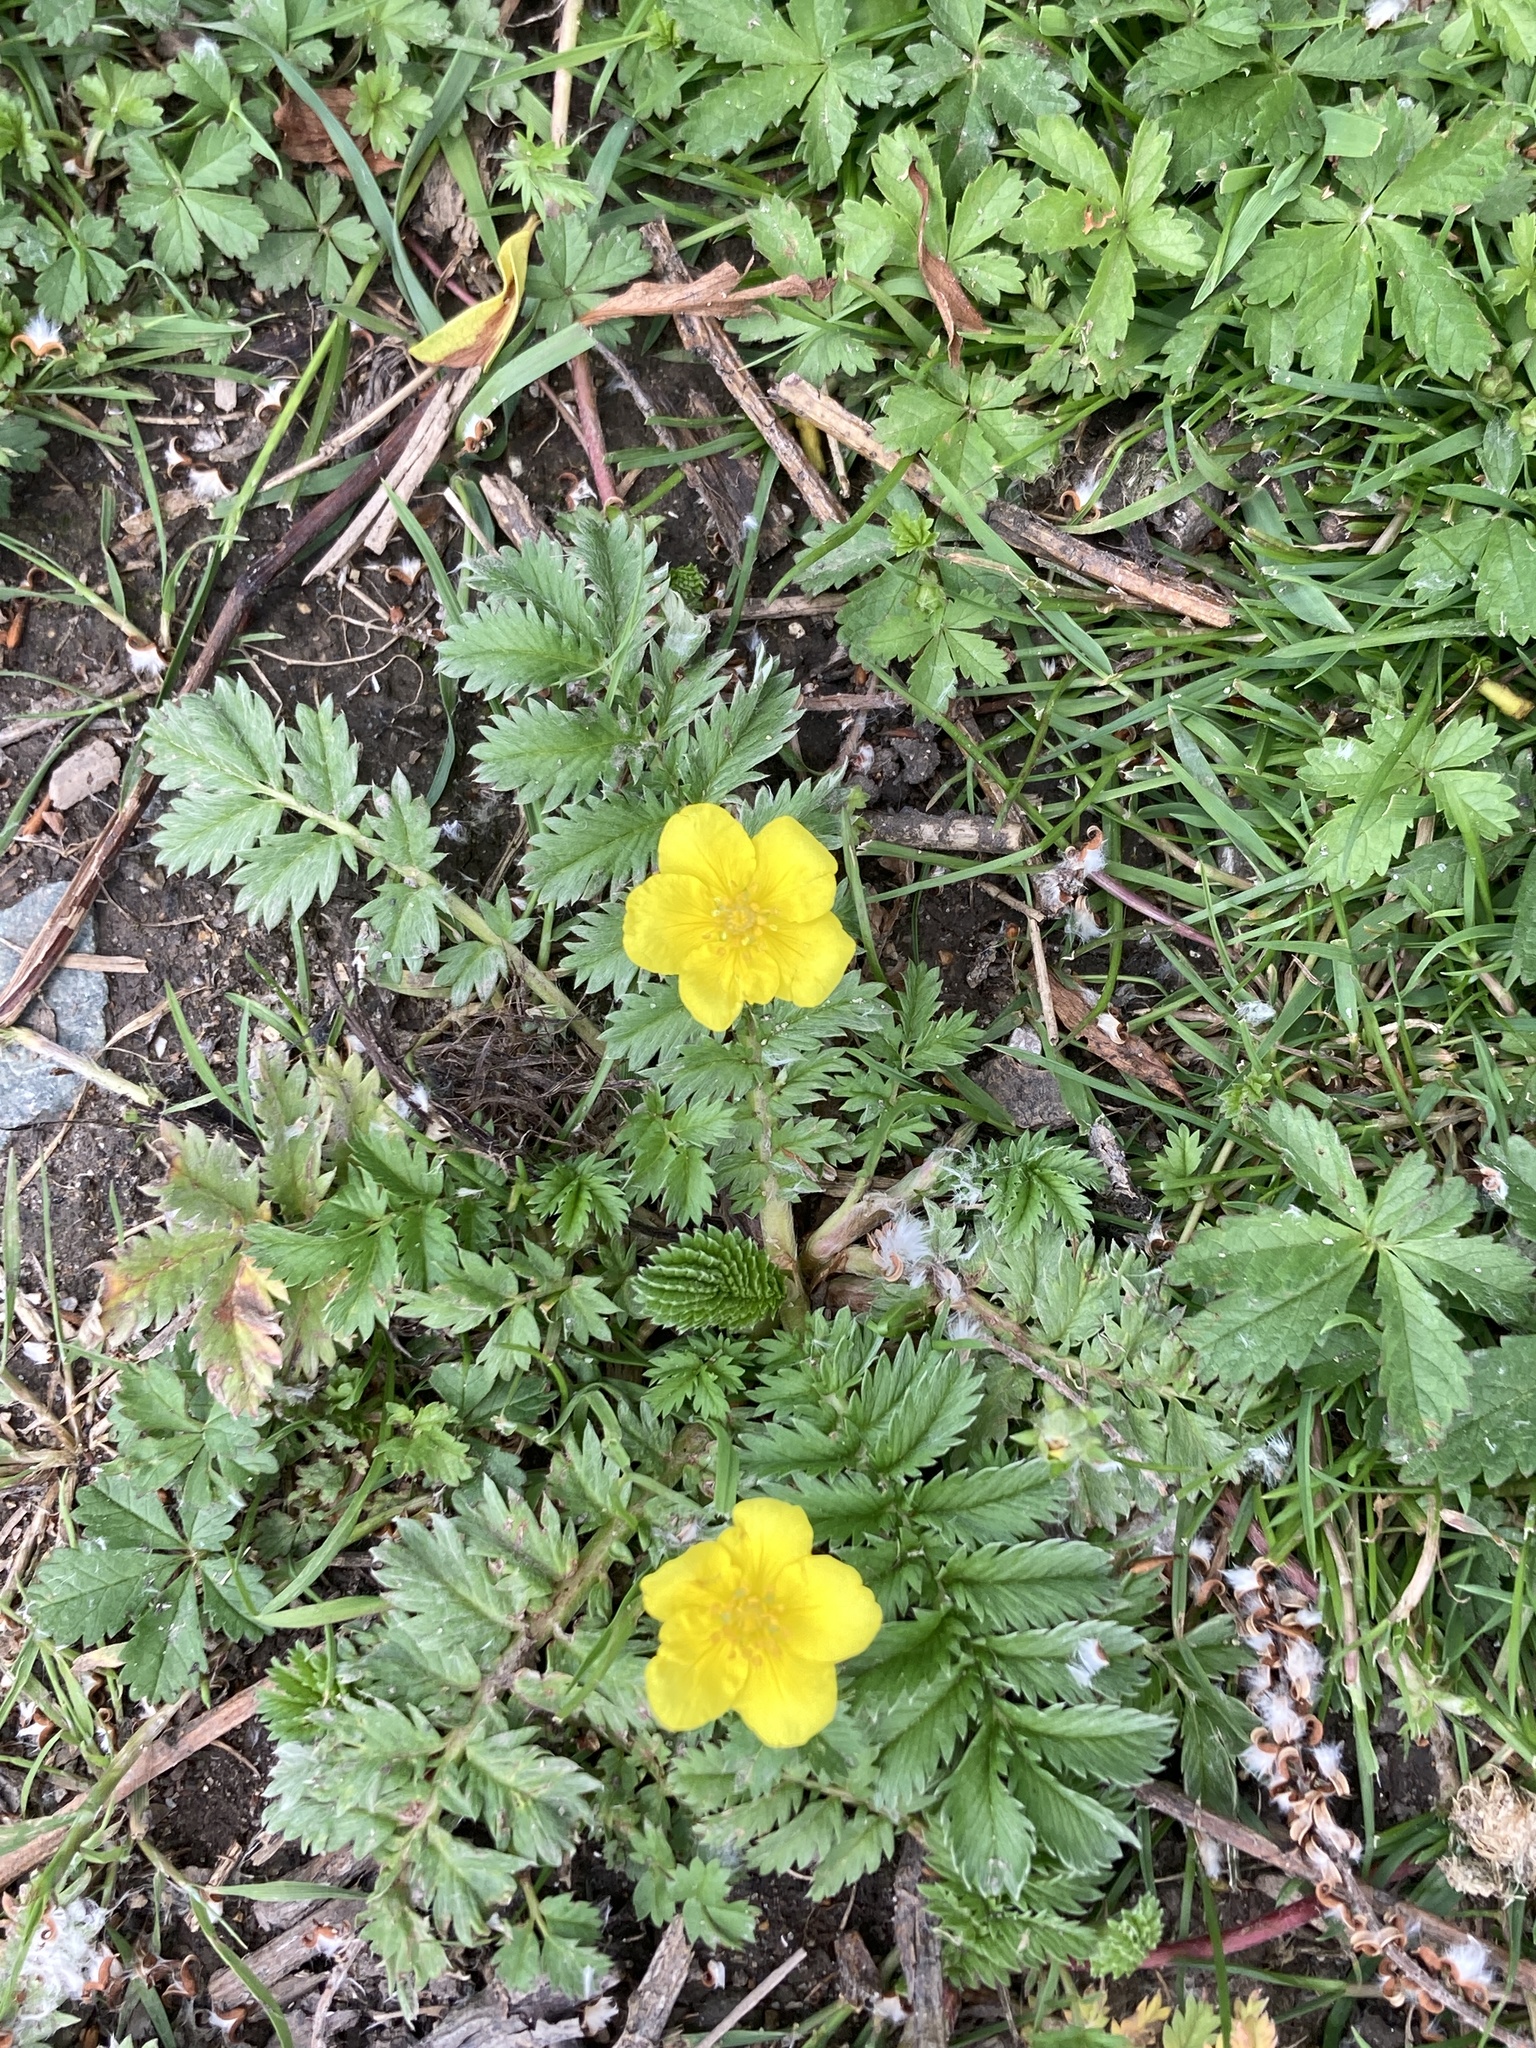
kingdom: Plantae
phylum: Tracheophyta
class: Magnoliopsida
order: Rosales
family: Rosaceae
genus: Argentina
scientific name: Argentina anserina
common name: Common silverweed
